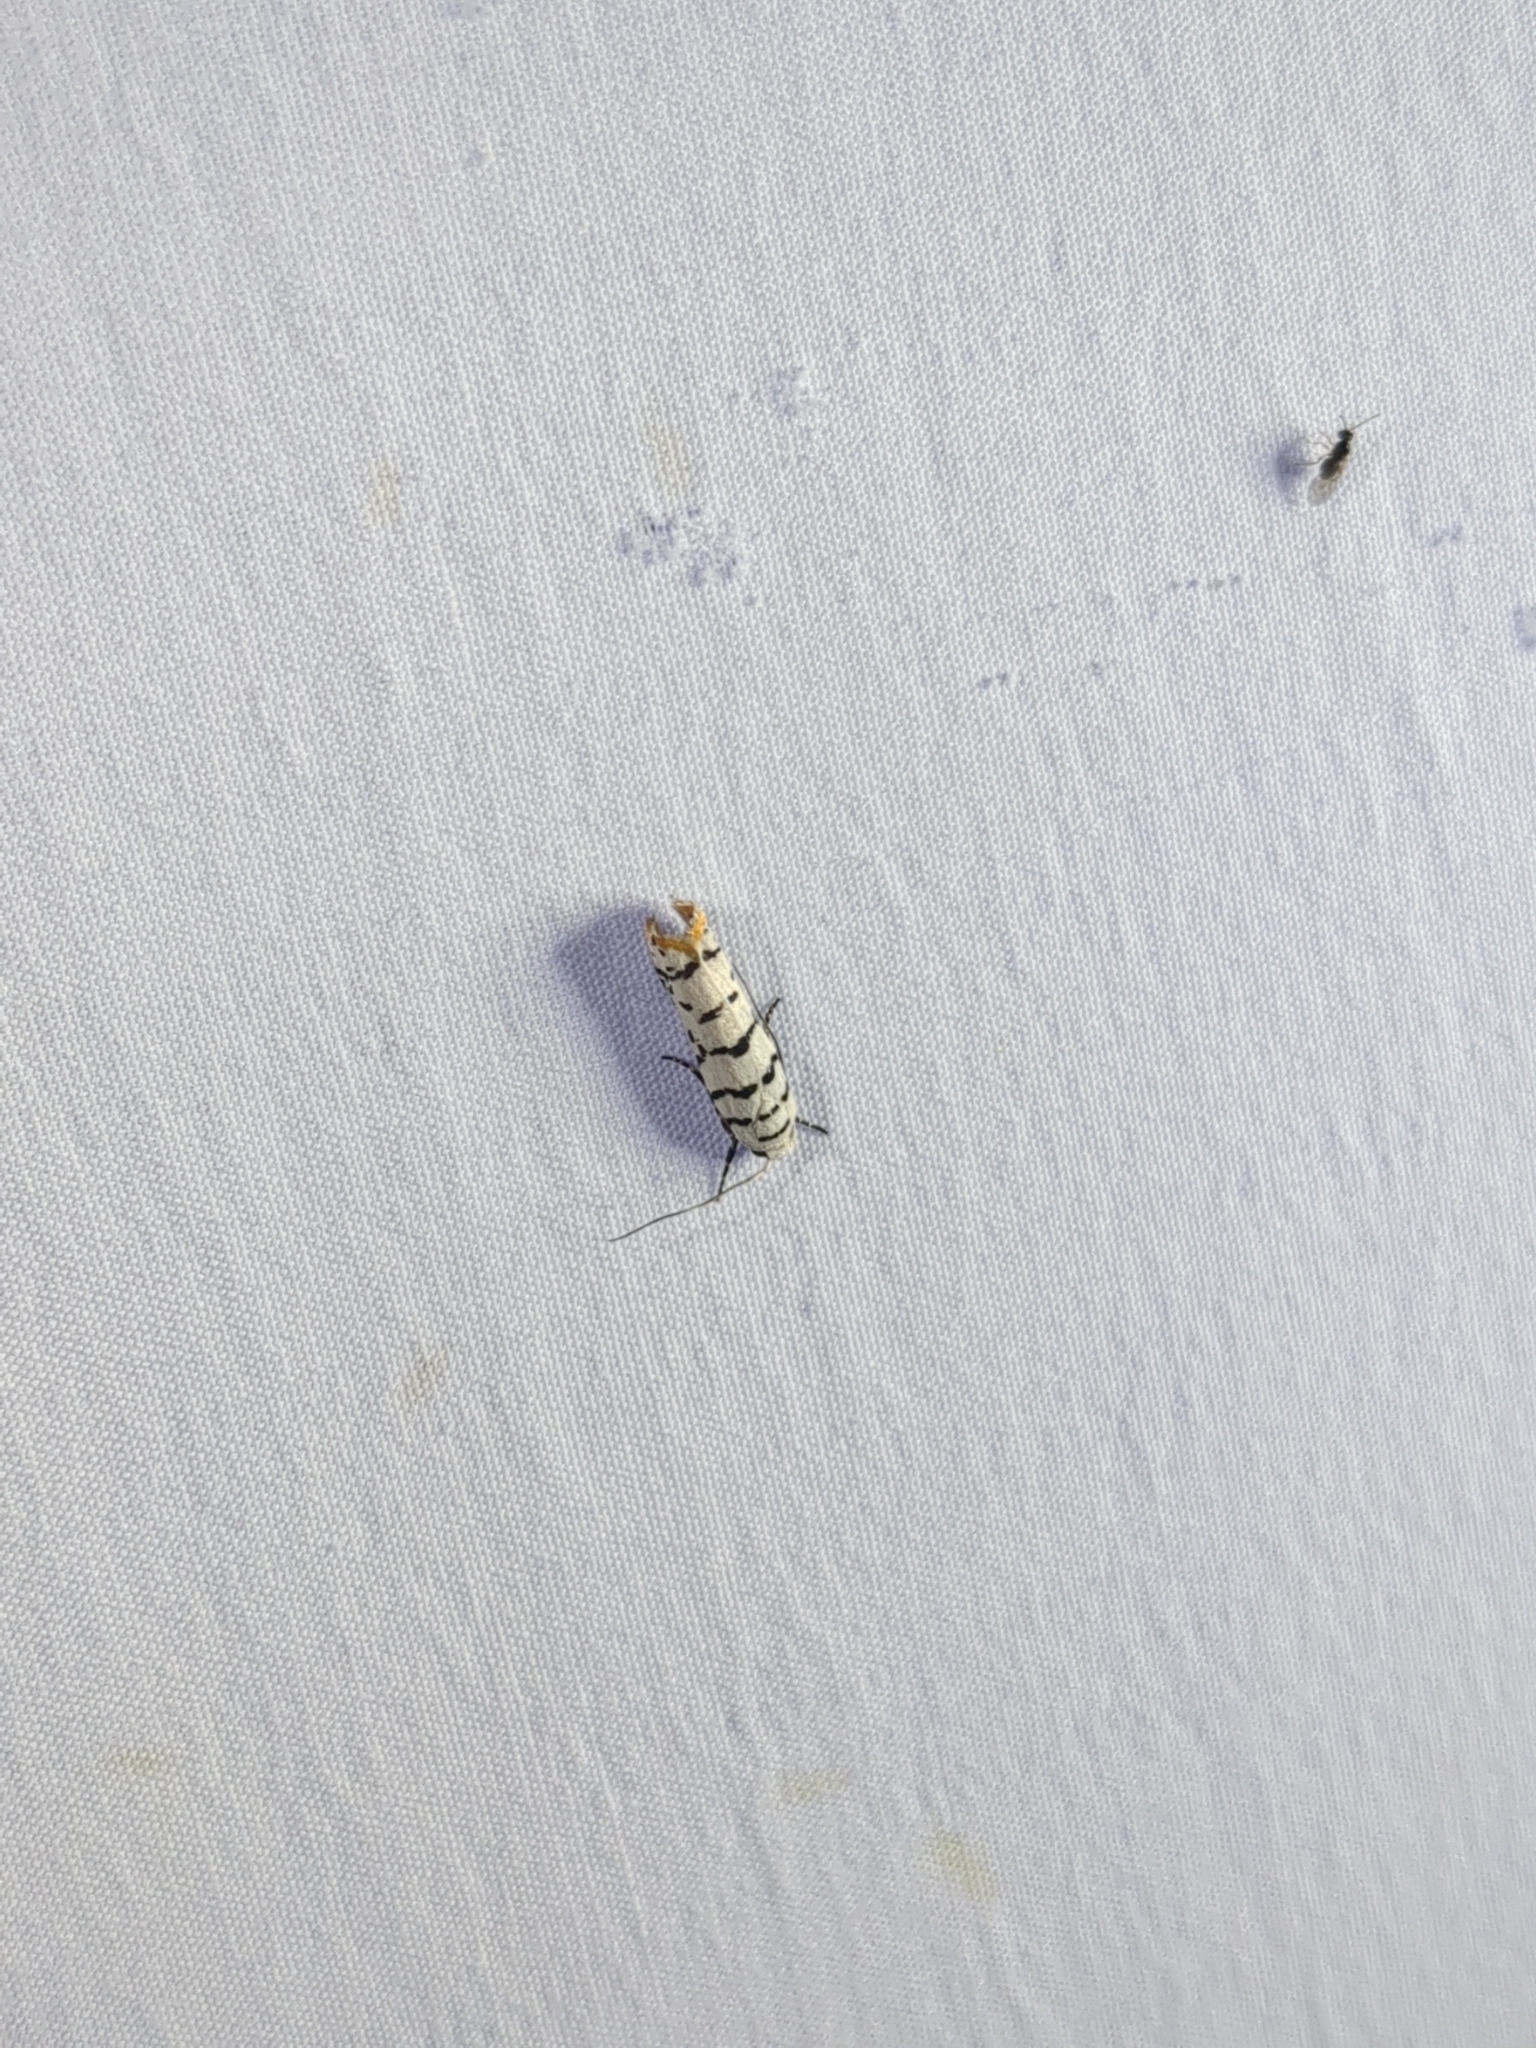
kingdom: Animalia
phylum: Arthropoda
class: Insecta
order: Lepidoptera
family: Ethmiidae
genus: Ethmia
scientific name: Ethmia delliella
